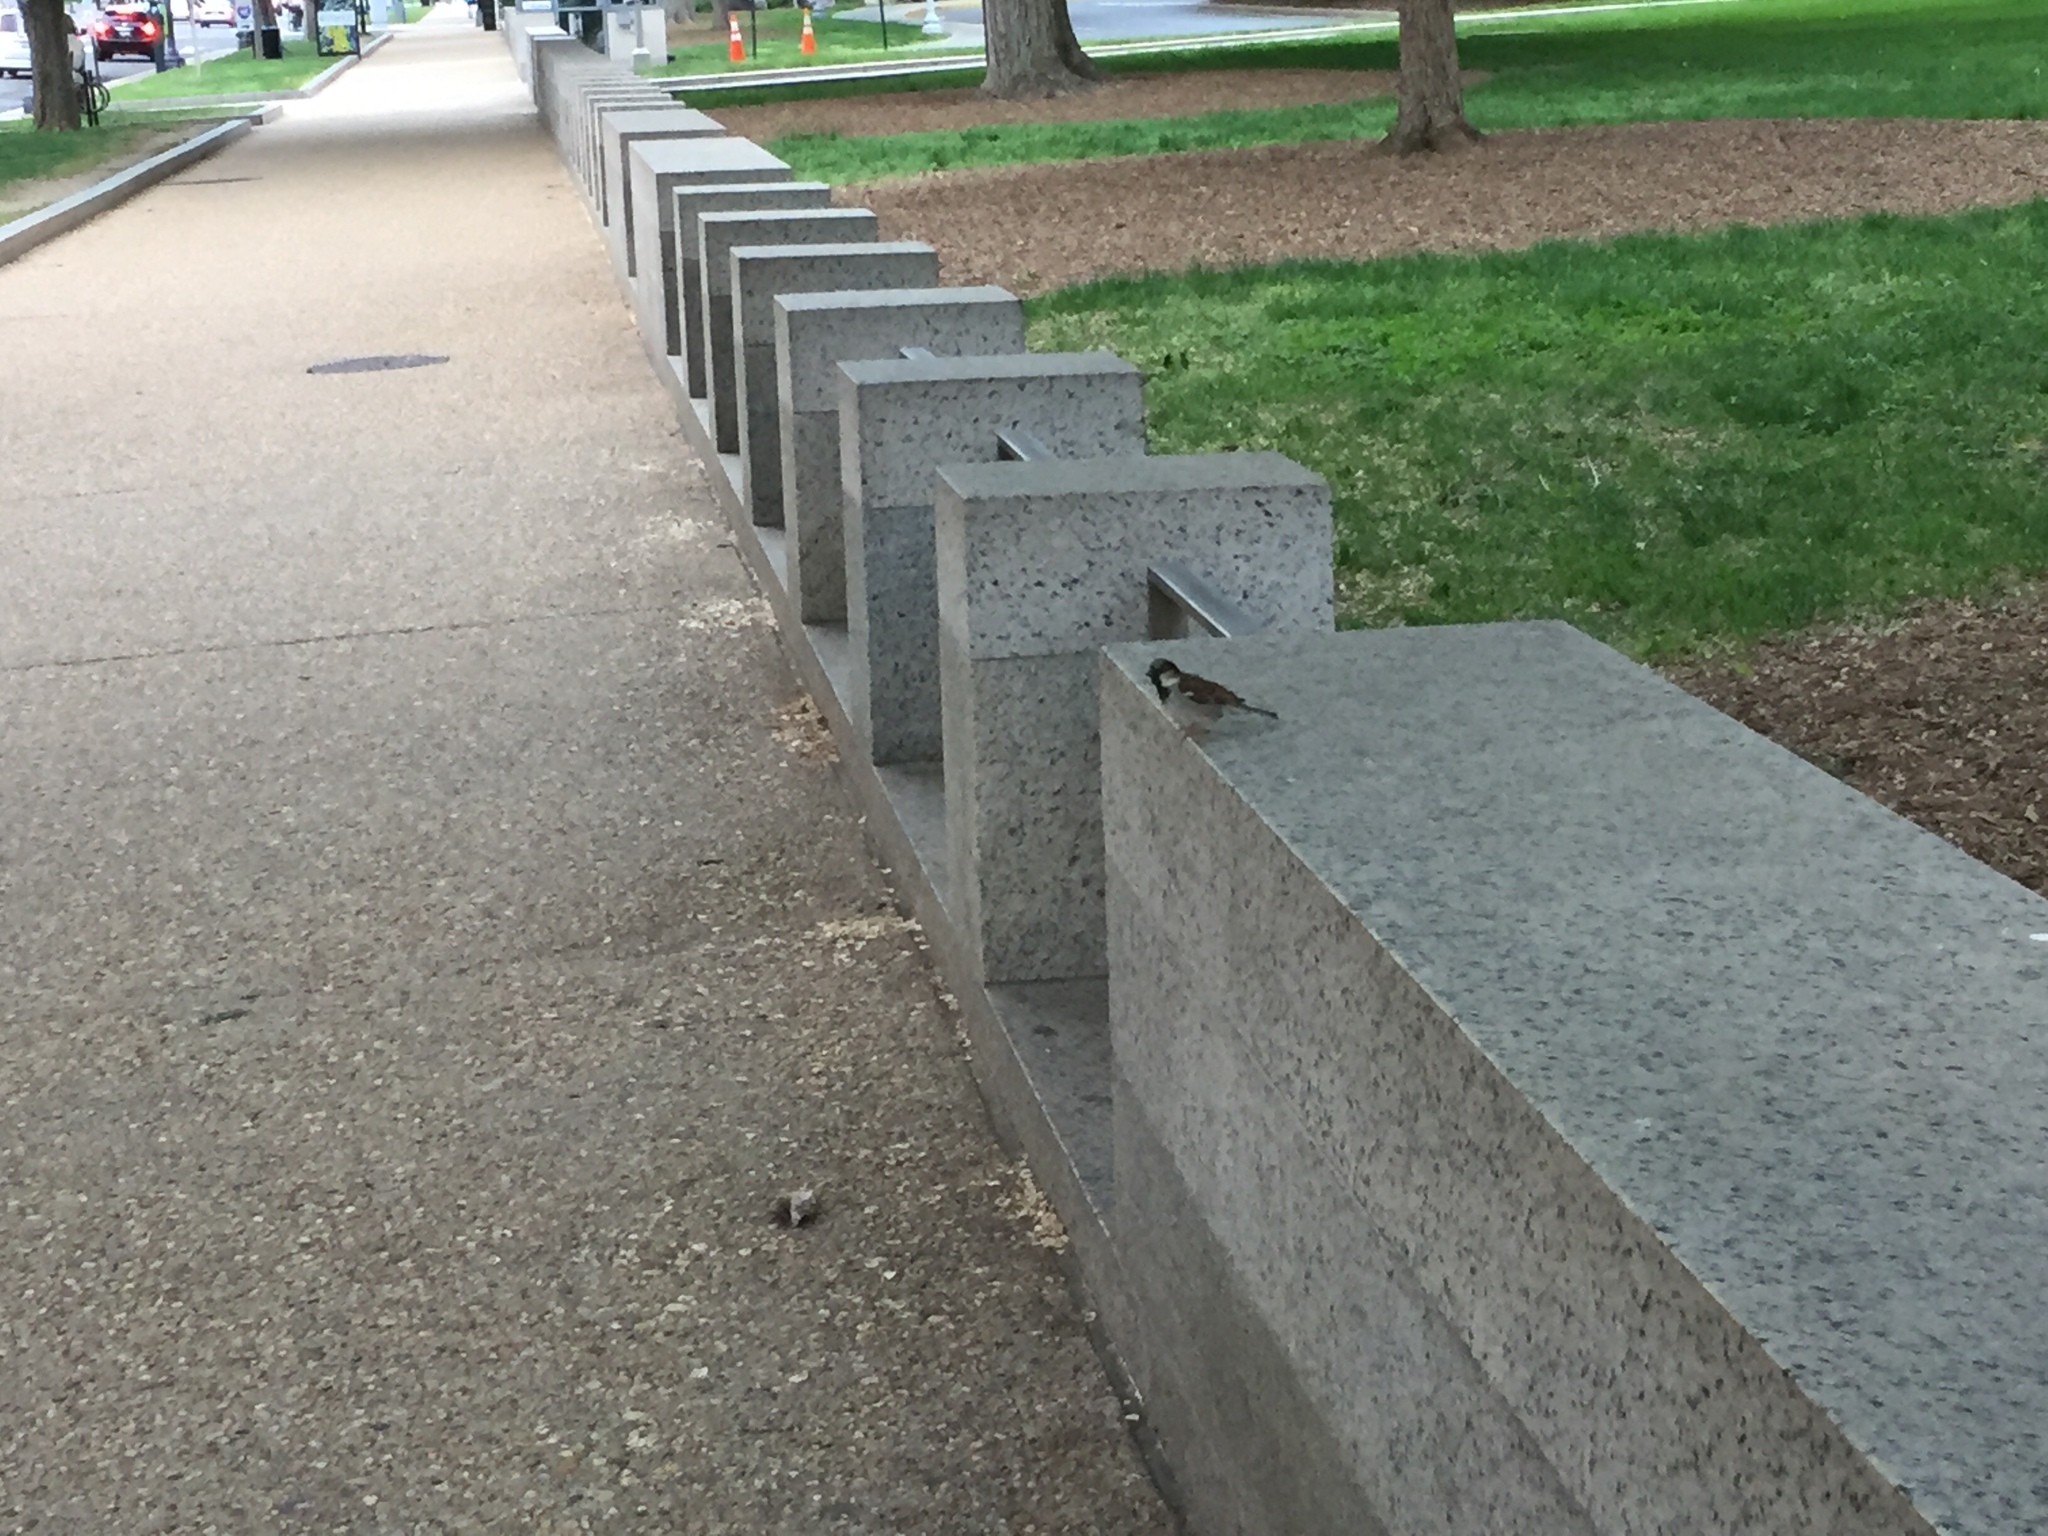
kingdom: Animalia
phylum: Chordata
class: Aves
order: Passeriformes
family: Passeridae
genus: Passer
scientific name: Passer domesticus
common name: House sparrow
